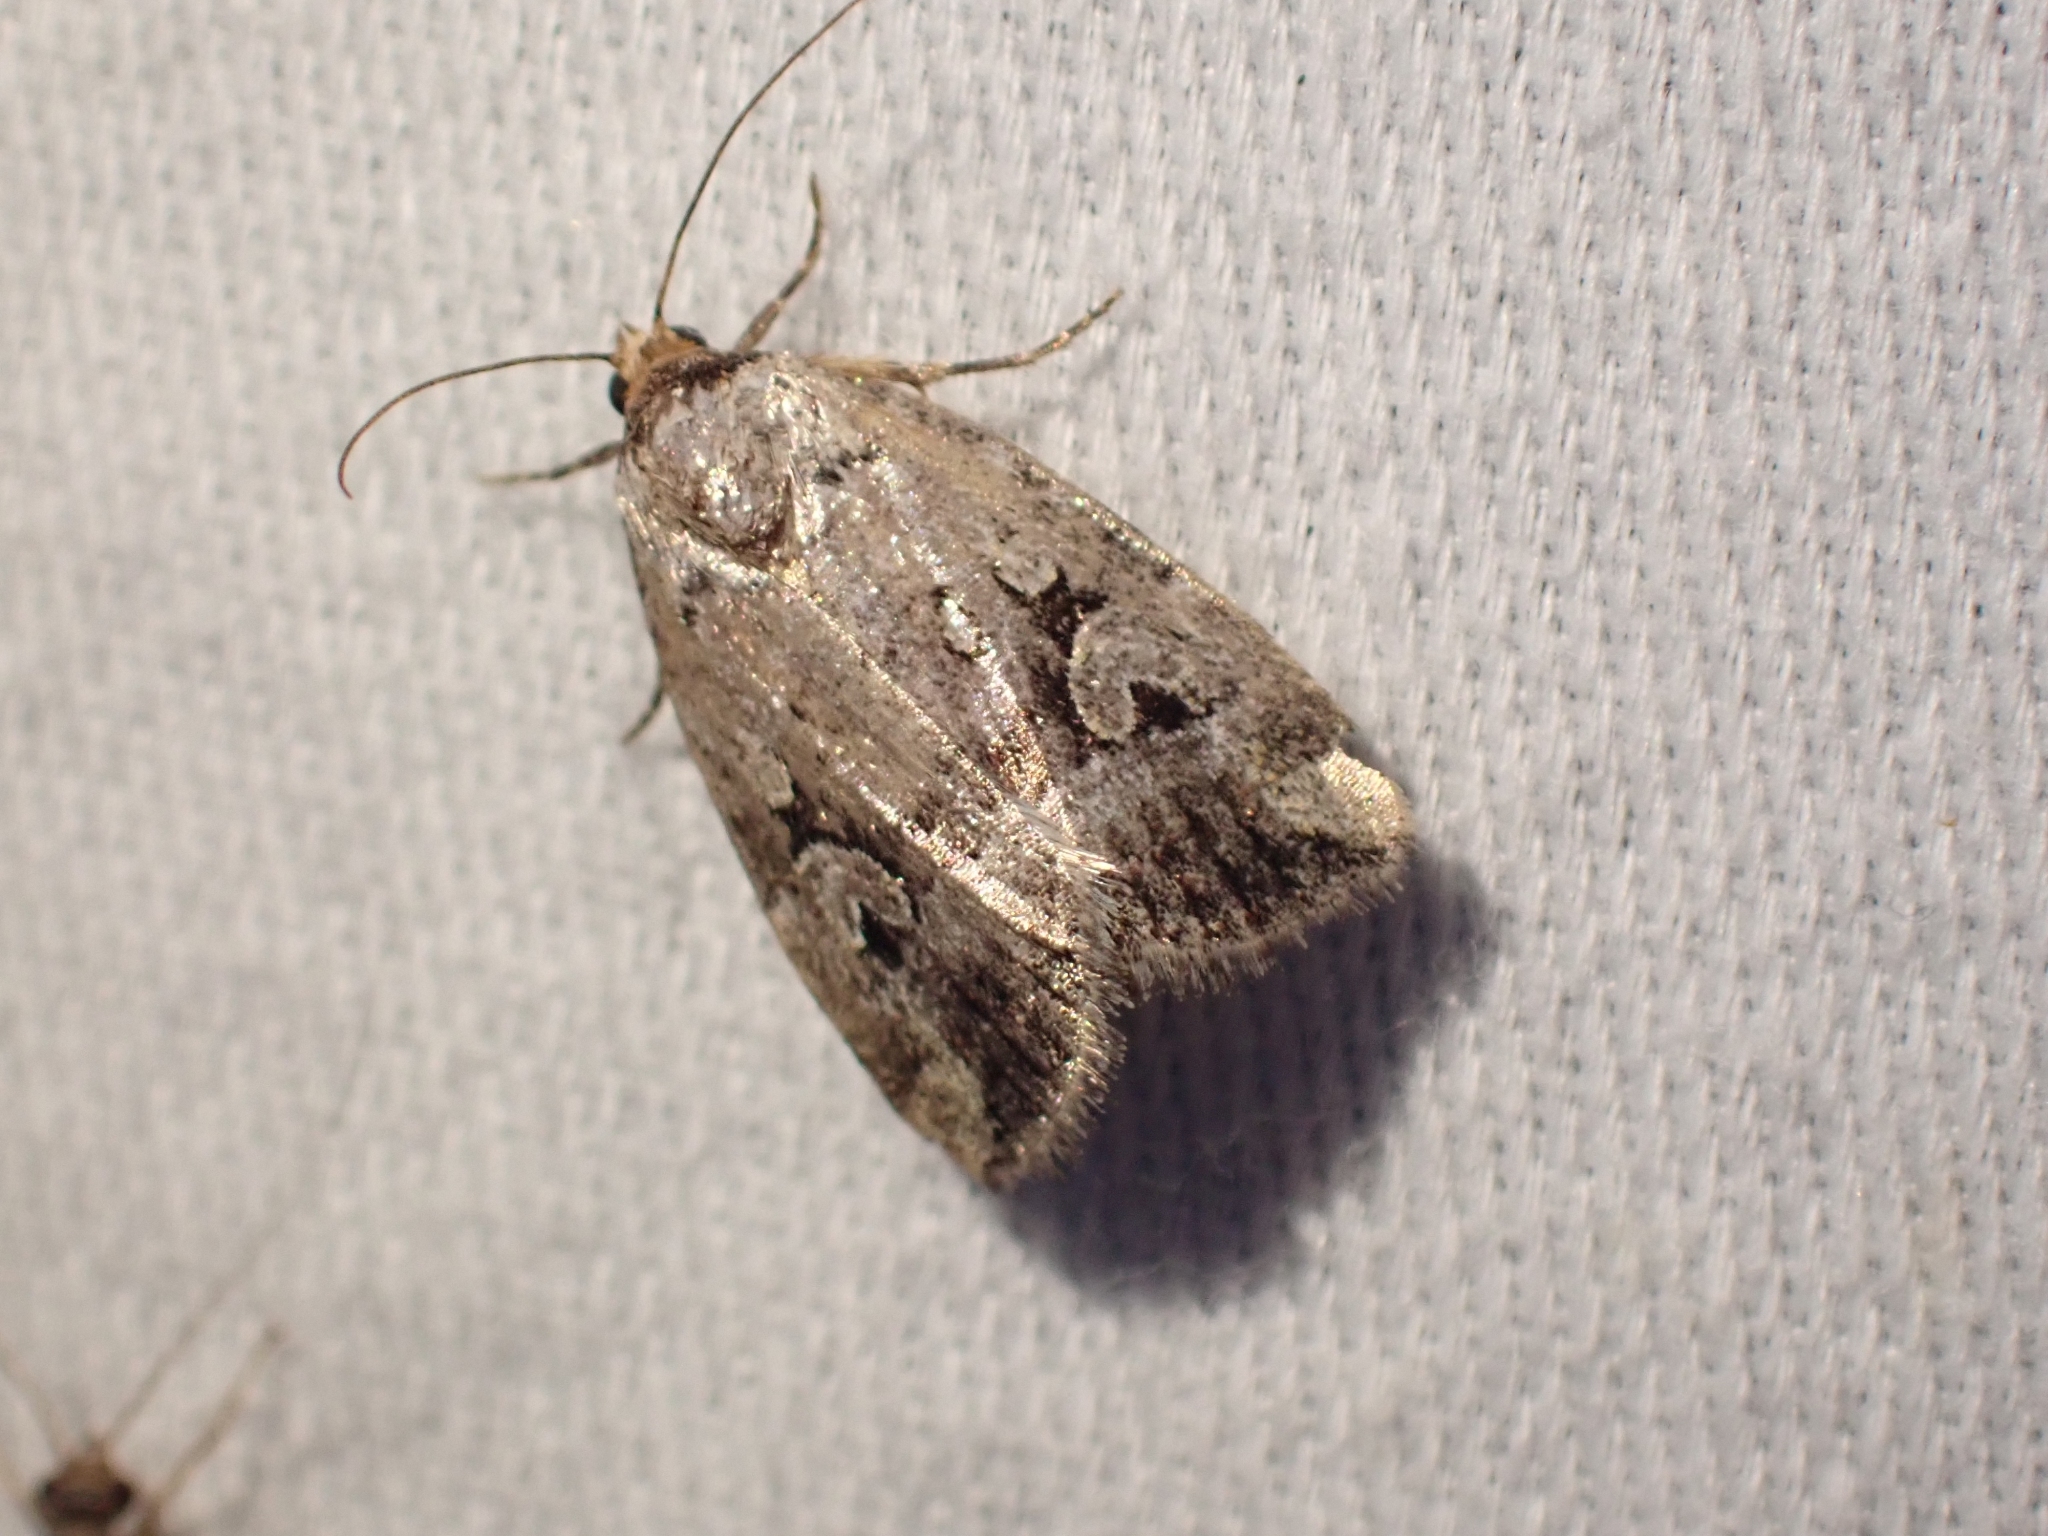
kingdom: Animalia
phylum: Arthropoda
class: Insecta
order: Lepidoptera
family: Noctuidae
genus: Elaphria
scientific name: Elaphria alapallida
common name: Pale-winged midget
